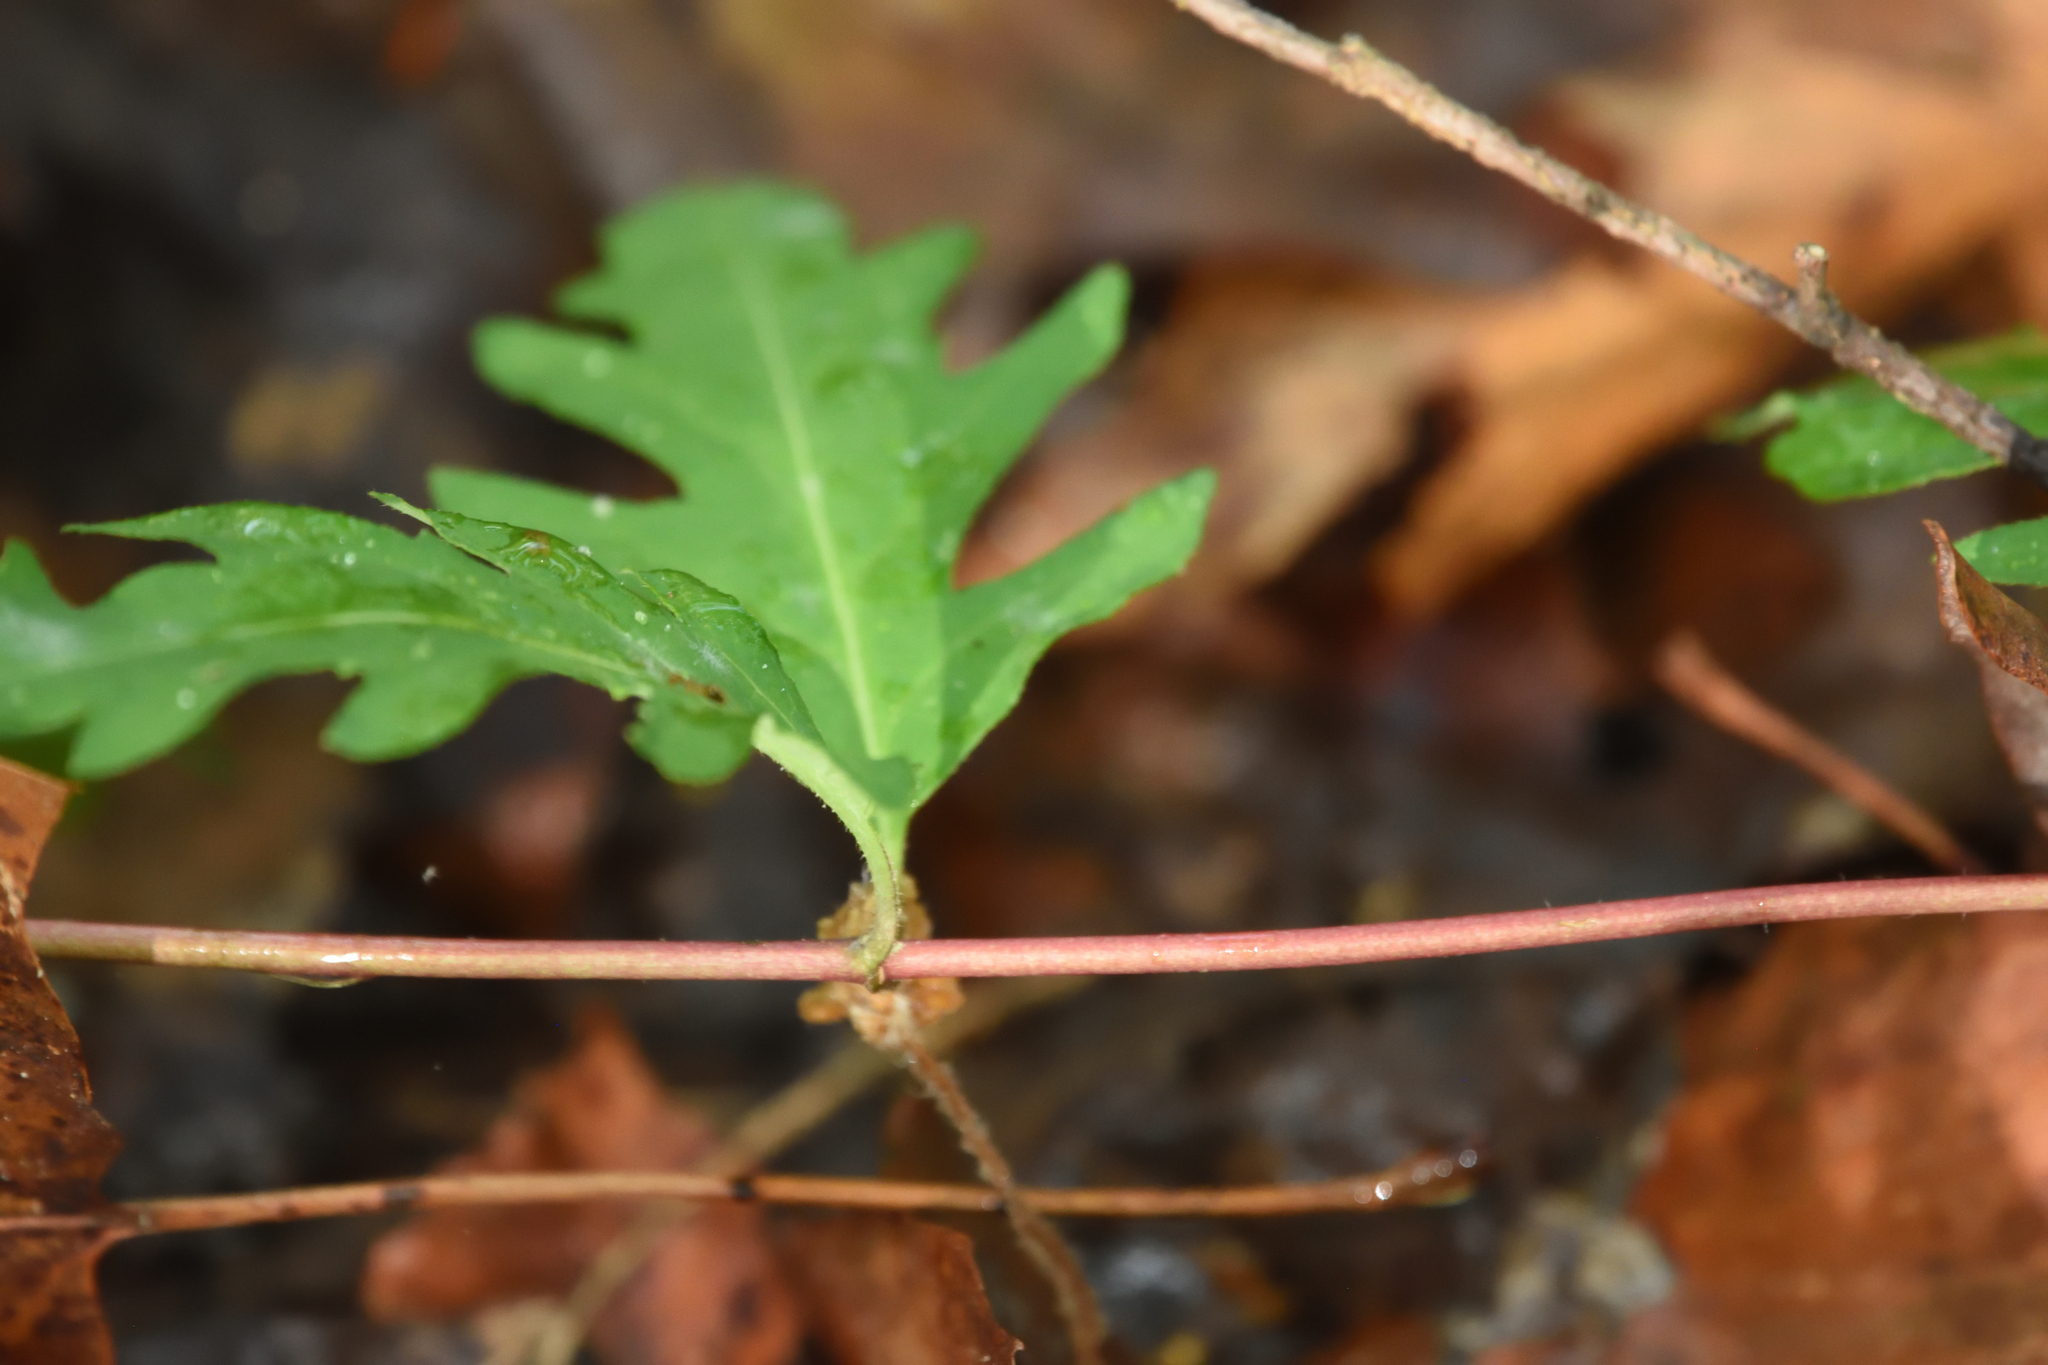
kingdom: Plantae
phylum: Tracheophyta
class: Magnoliopsida
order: Dipsacales
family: Caprifoliaceae
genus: Lonicera
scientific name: Lonicera japonica
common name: Japanese honeysuckle
